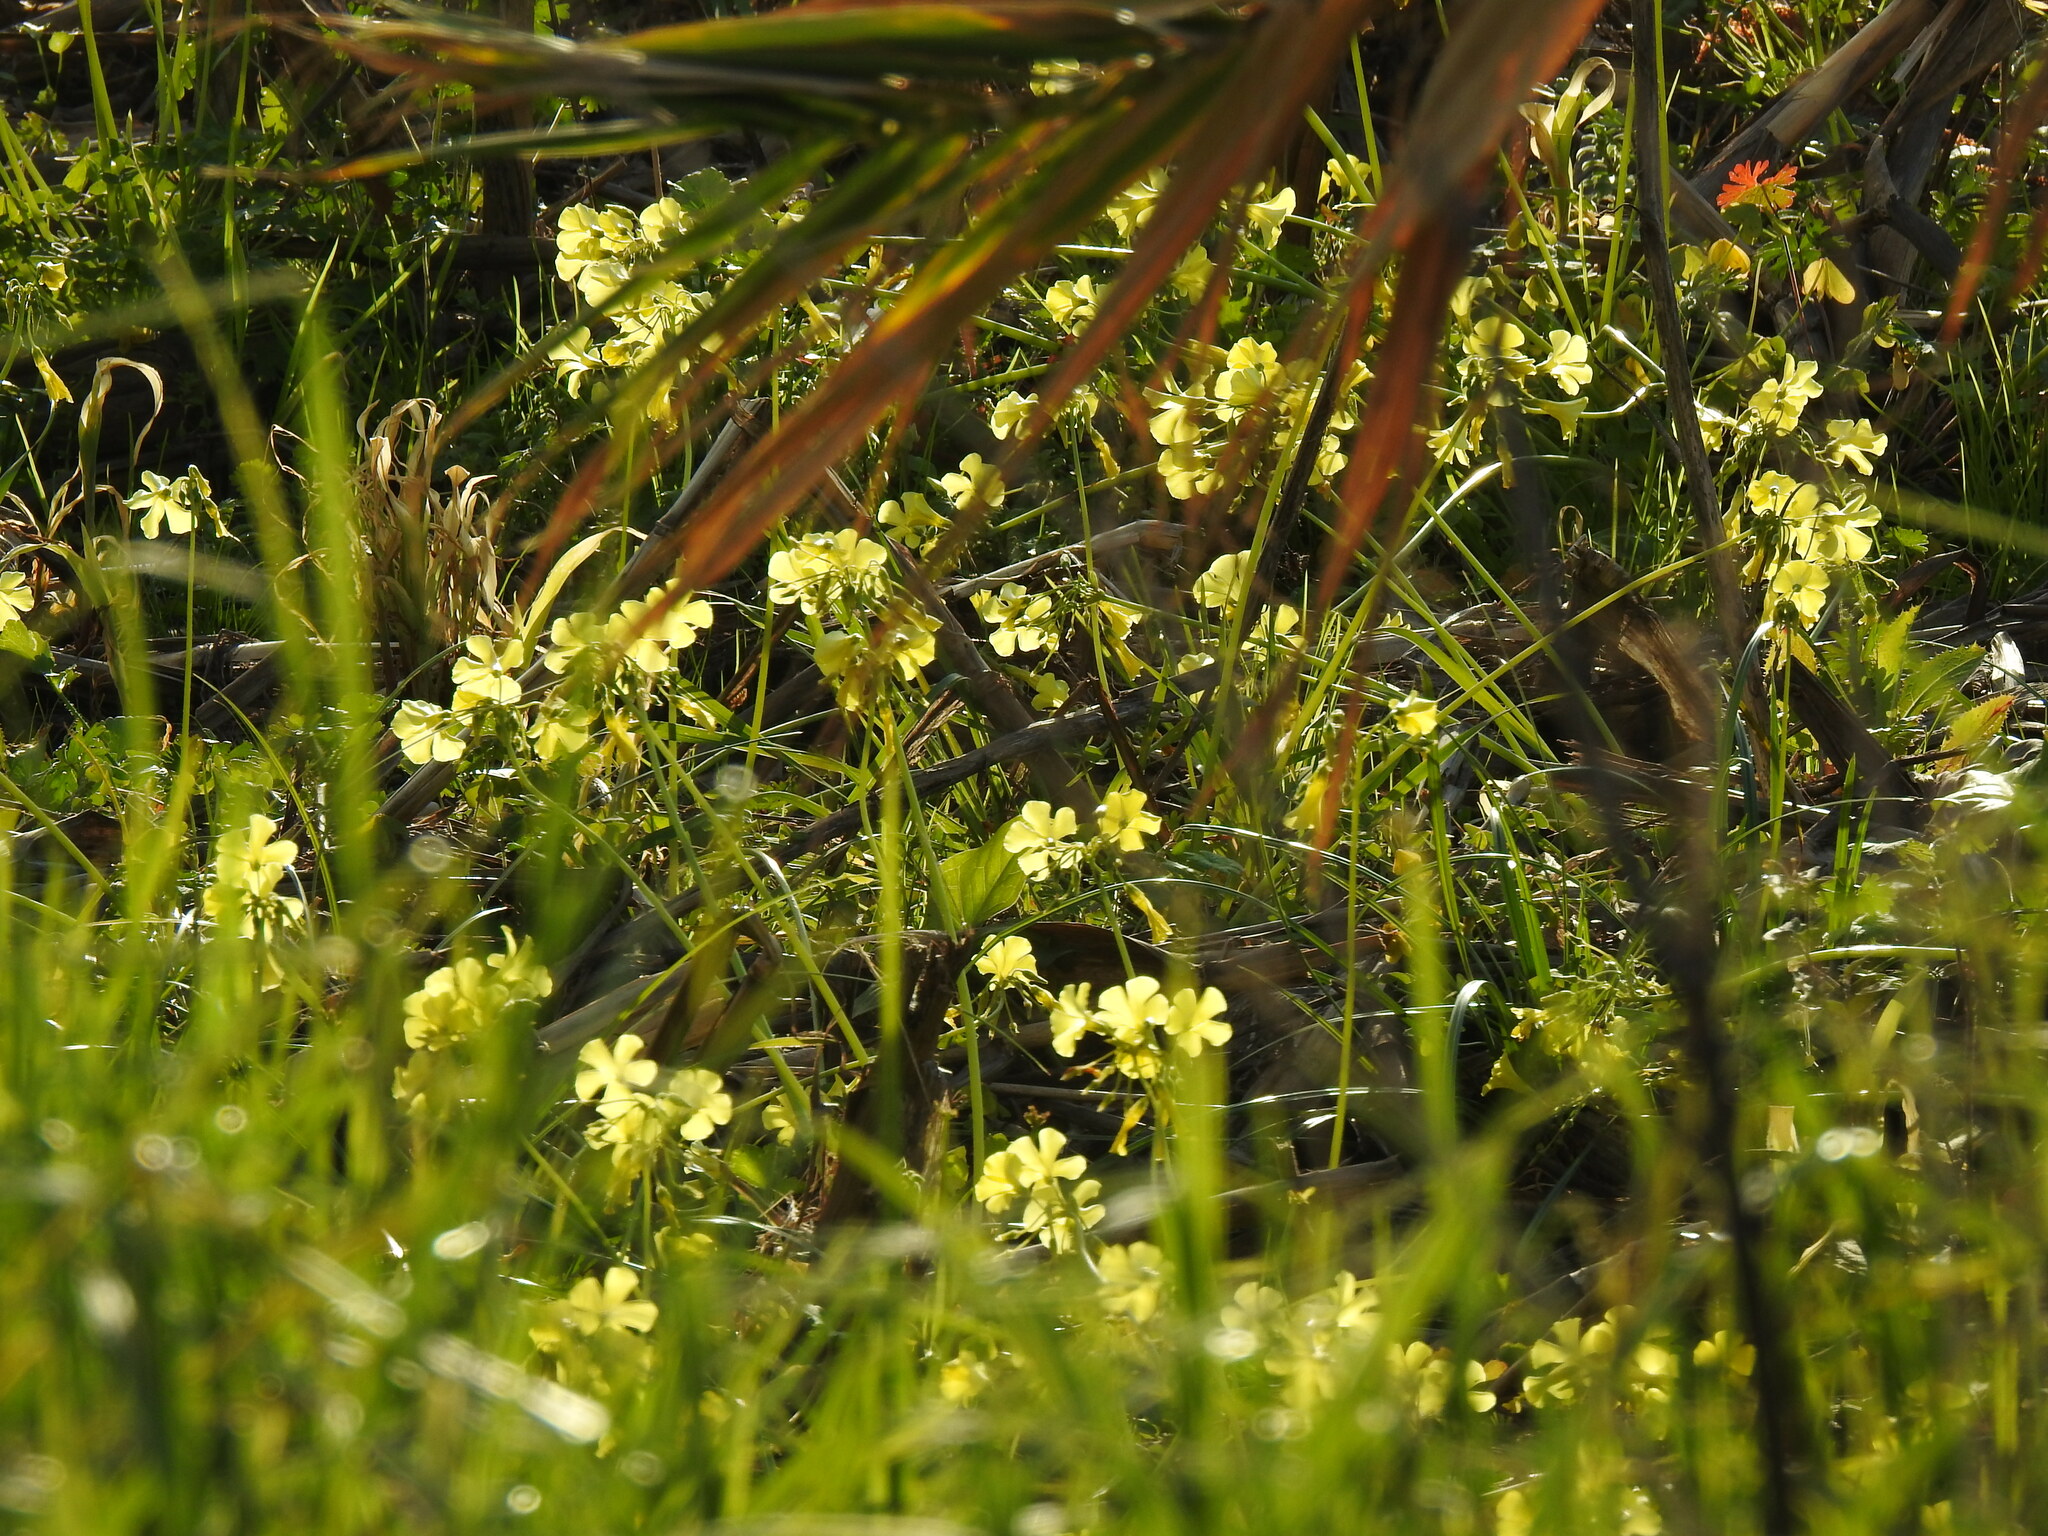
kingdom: Plantae
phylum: Tracheophyta
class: Magnoliopsida
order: Oxalidales
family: Oxalidaceae
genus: Oxalis
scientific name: Oxalis pes-caprae
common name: Bermuda-buttercup
